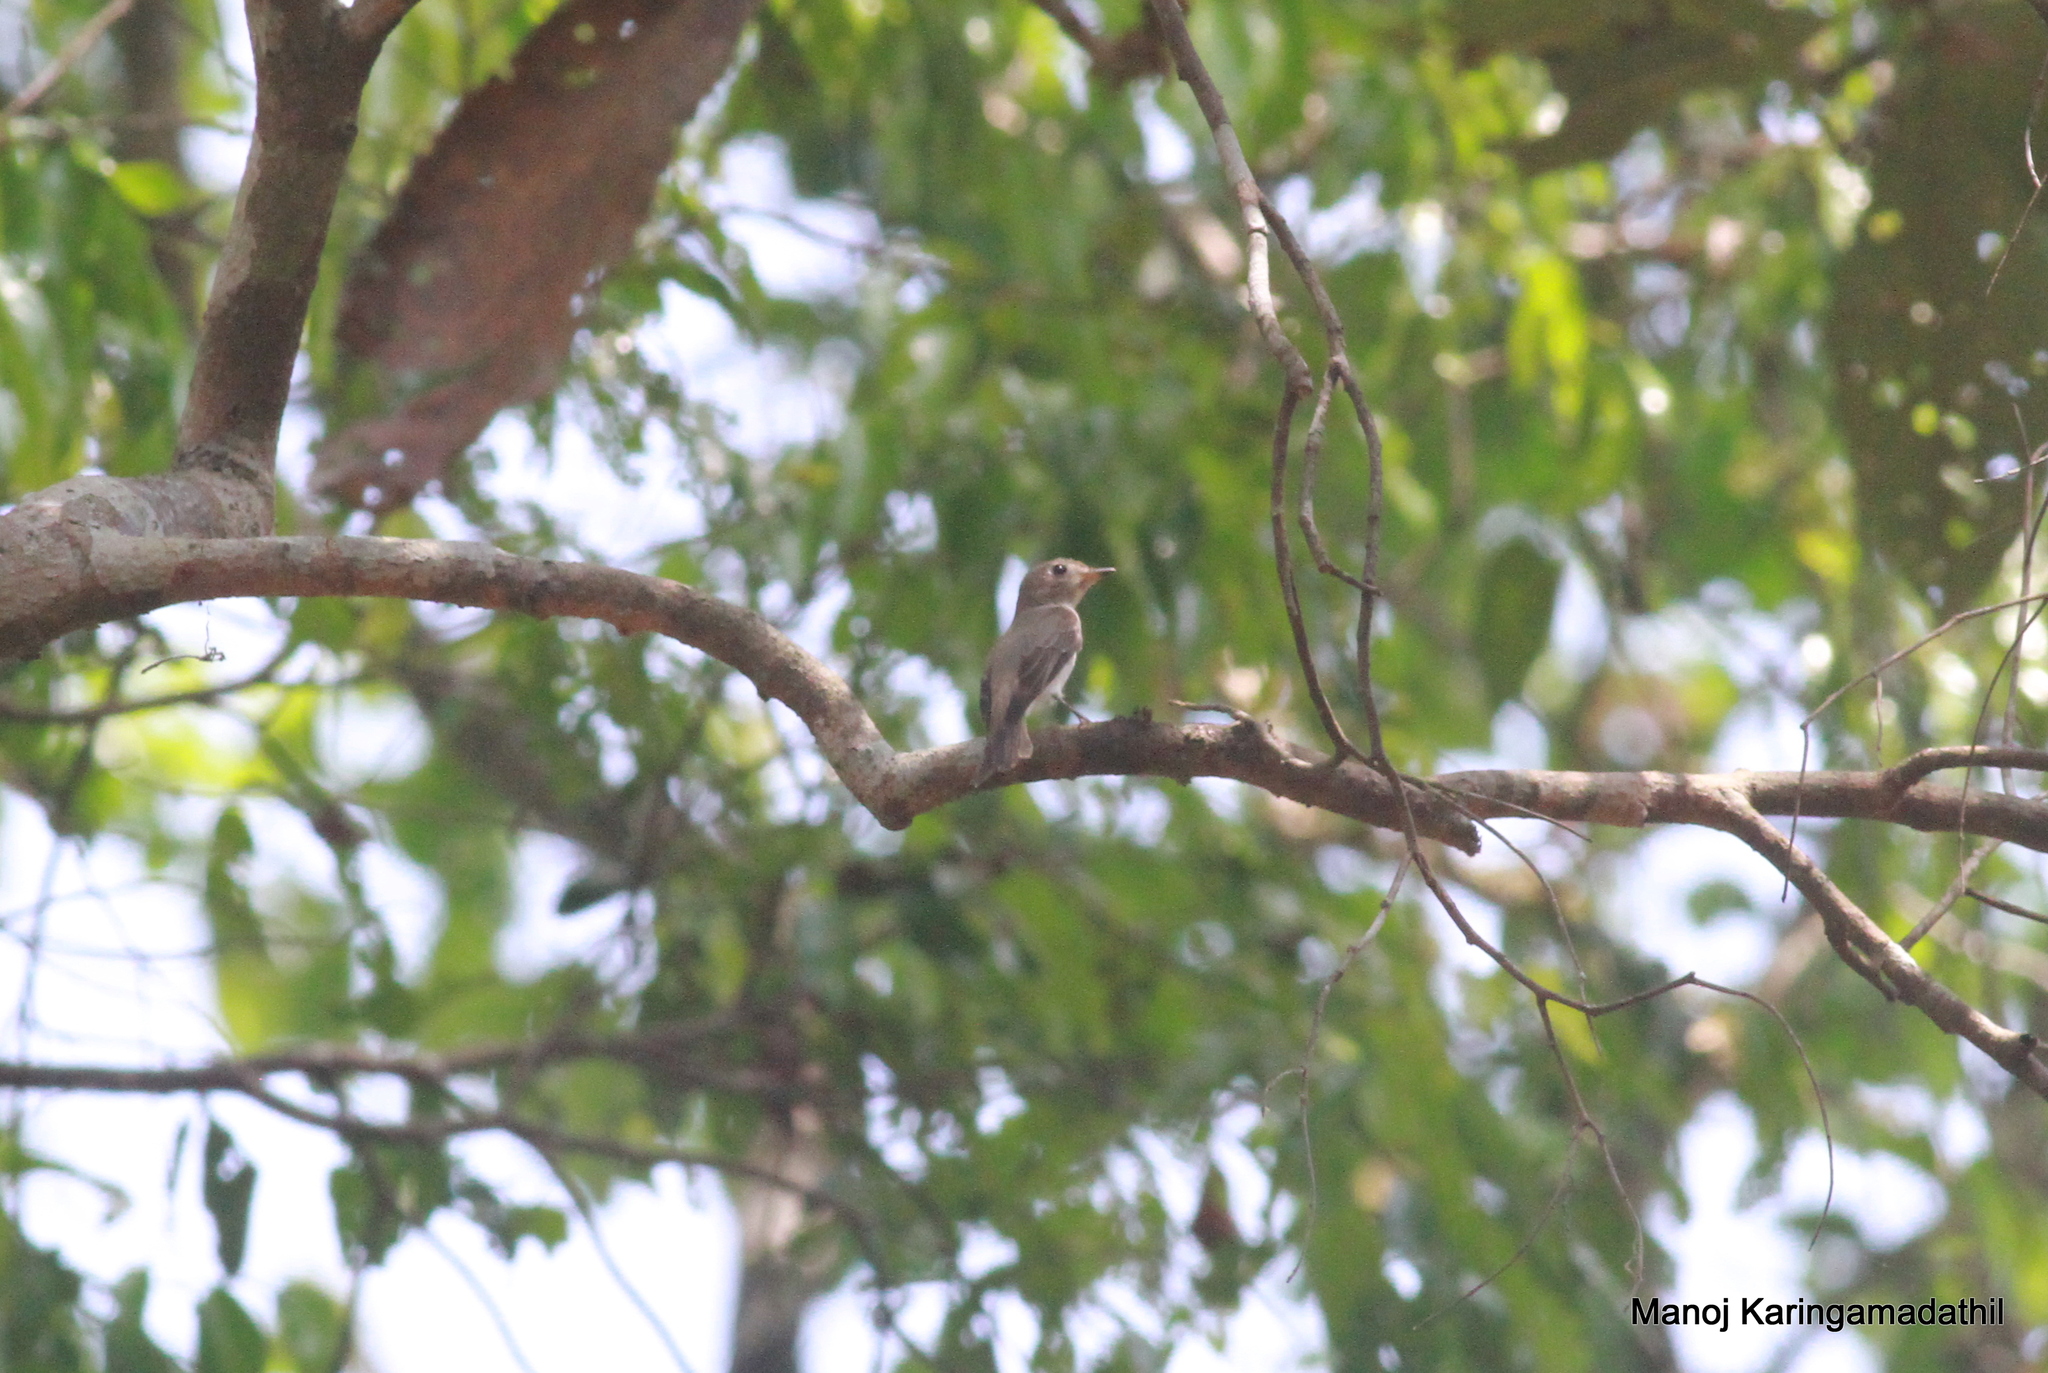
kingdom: Animalia
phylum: Chordata
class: Aves
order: Passeriformes
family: Muscicapidae
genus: Muscicapa
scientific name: Muscicapa latirostris
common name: Asian brown flycatcher
